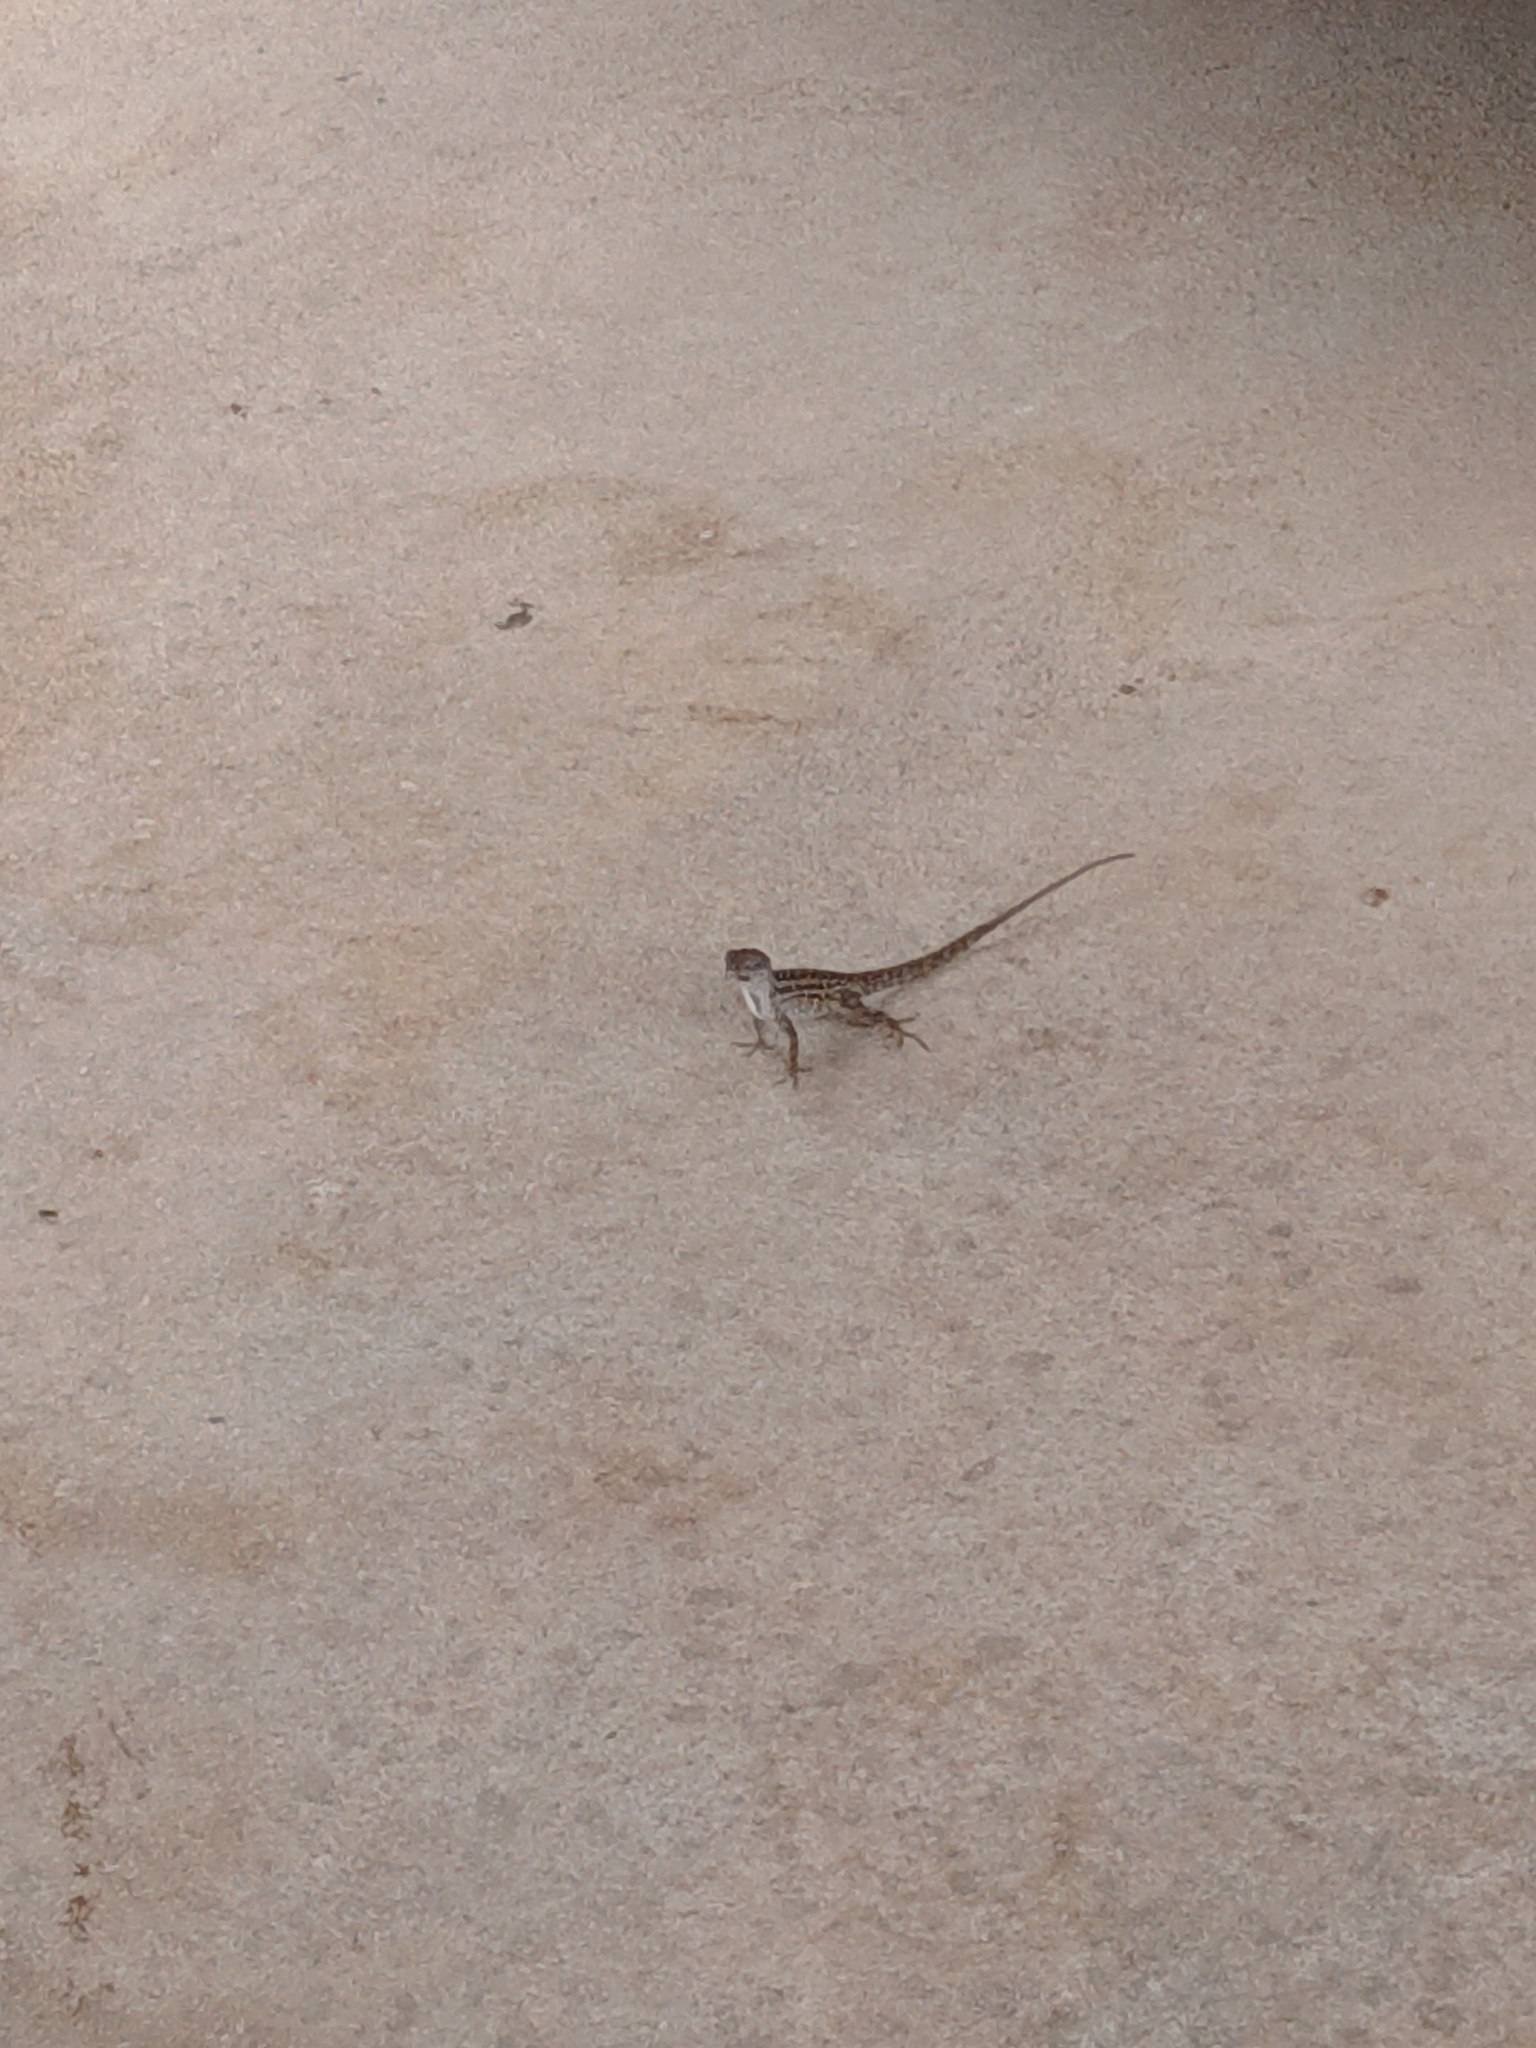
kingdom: Animalia
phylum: Chordata
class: Squamata
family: Dactyloidae
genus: Anolis
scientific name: Anolis sagrei
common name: Brown anole
